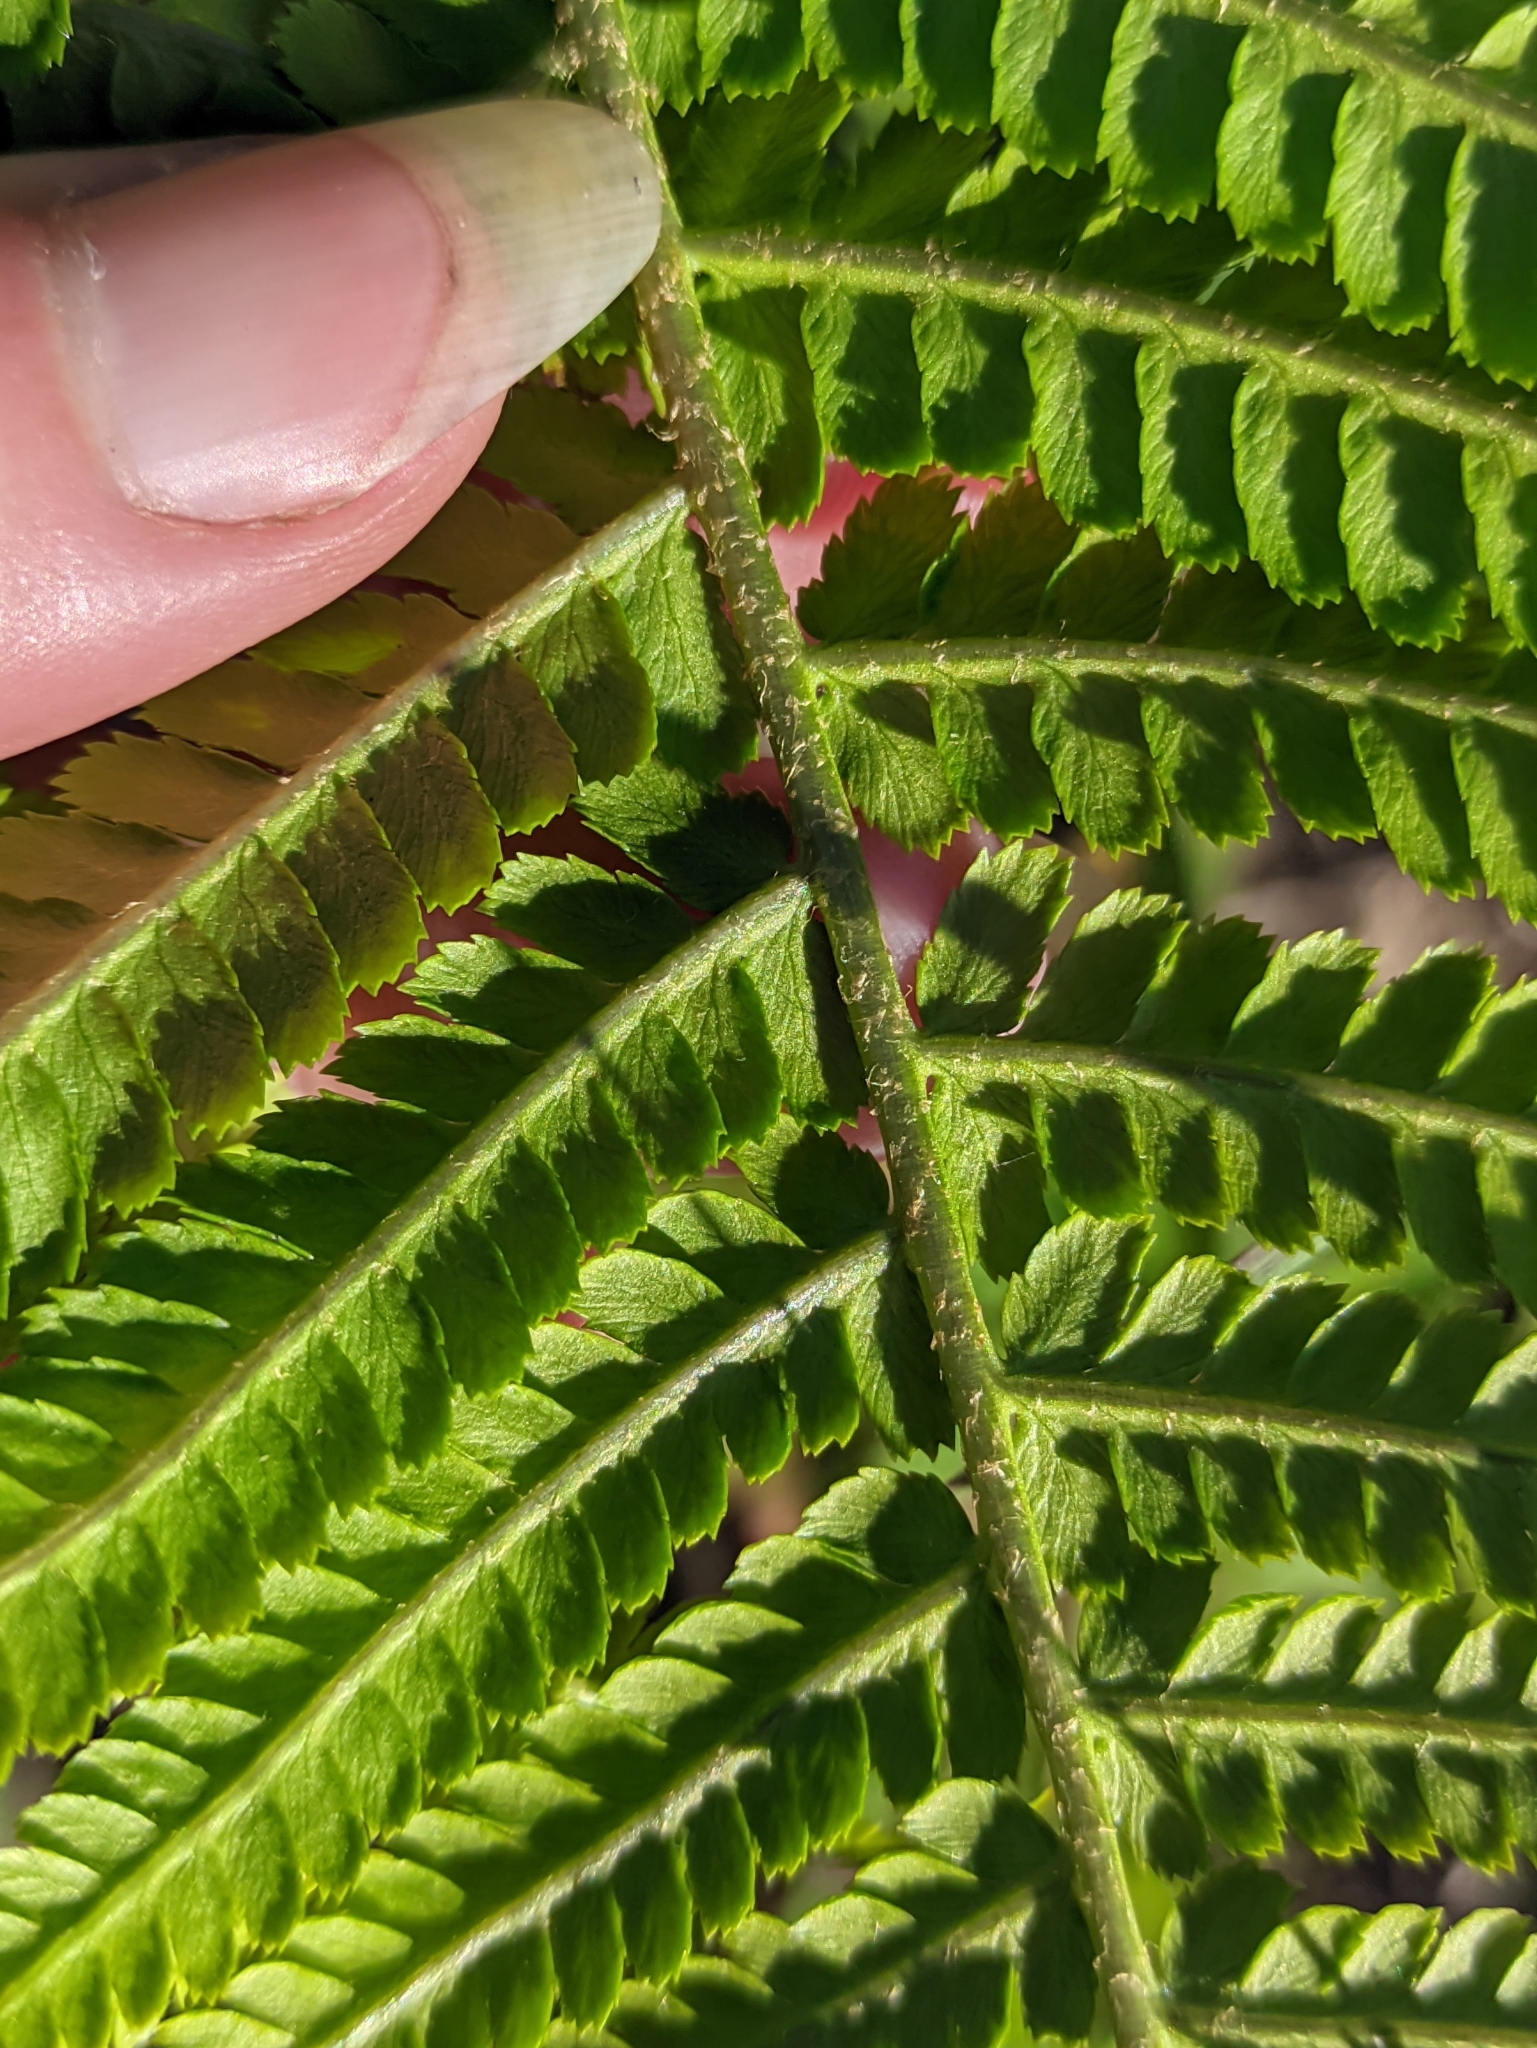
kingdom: Plantae
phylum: Tracheophyta
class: Polypodiopsida
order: Polypodiales
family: Dryopteridaceae
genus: Dryopteris
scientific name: Dryopteris filix-mas
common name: Male fern
